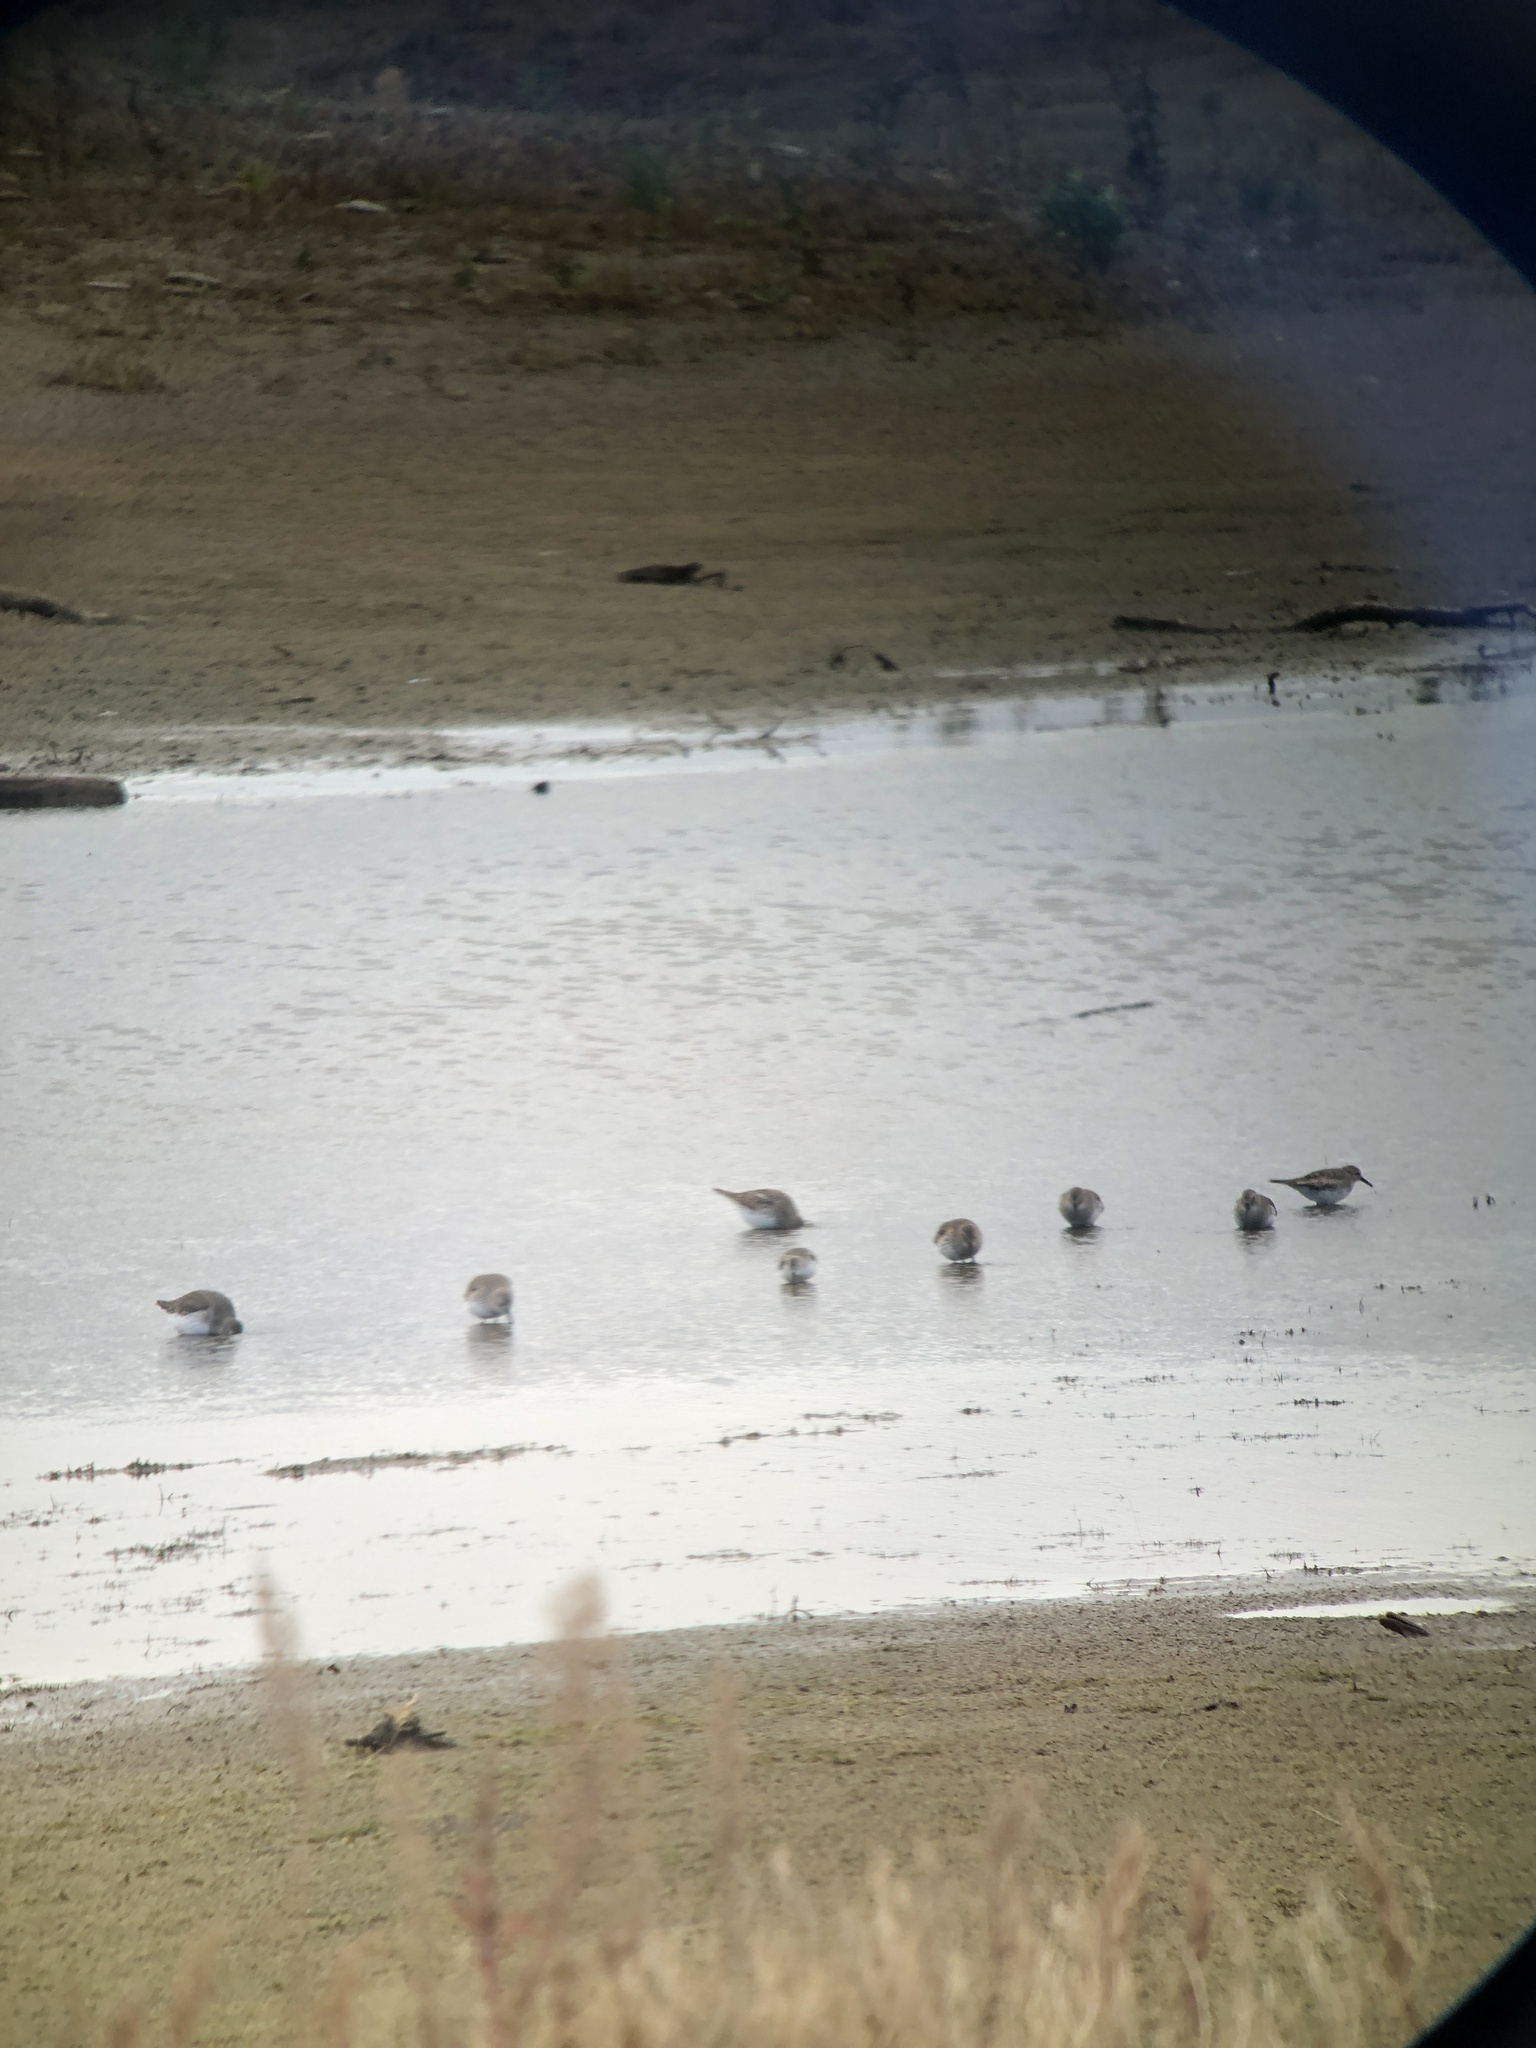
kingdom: Animalia
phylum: Chordata
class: Aves
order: Charadriiformes
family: Scolopacidae
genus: Calidris
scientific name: Calidris alpina
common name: Dunlin
